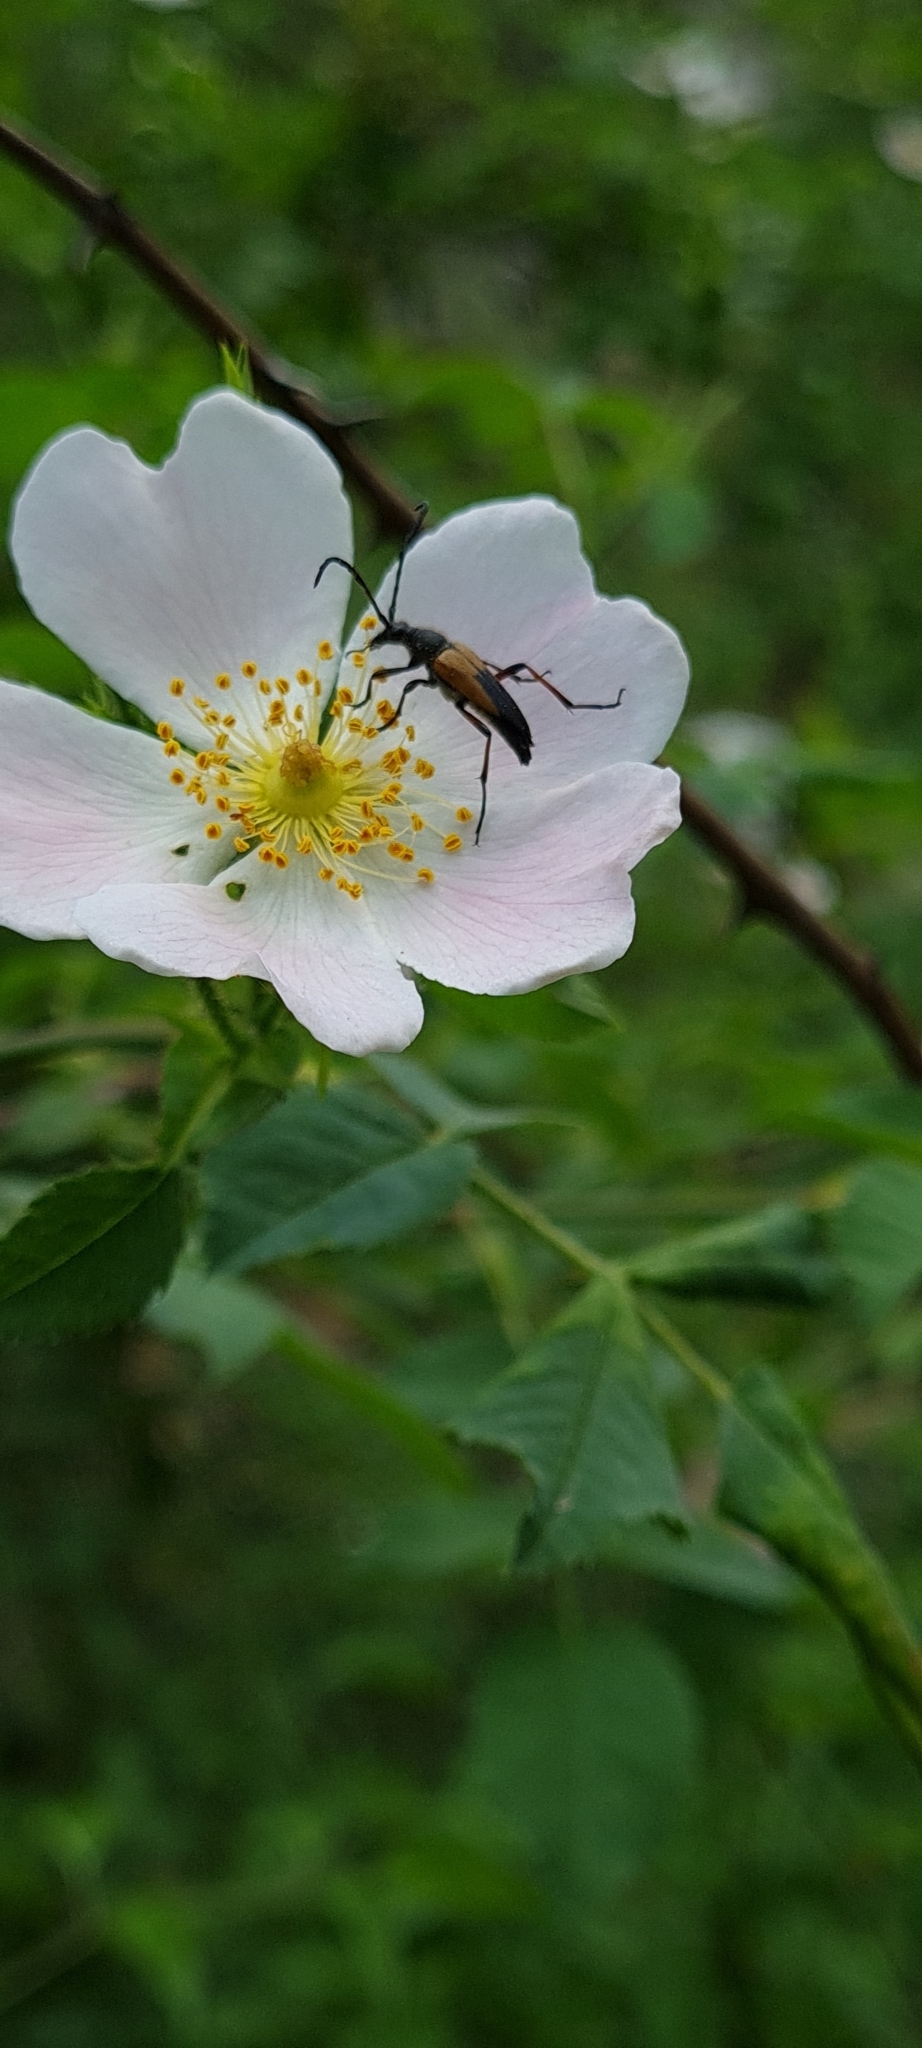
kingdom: Animalia
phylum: Arthropoda
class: Insecta
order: Coleoptera
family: Cerambycidae
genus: Stictoleptura
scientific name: Stictoleptura stragulata
